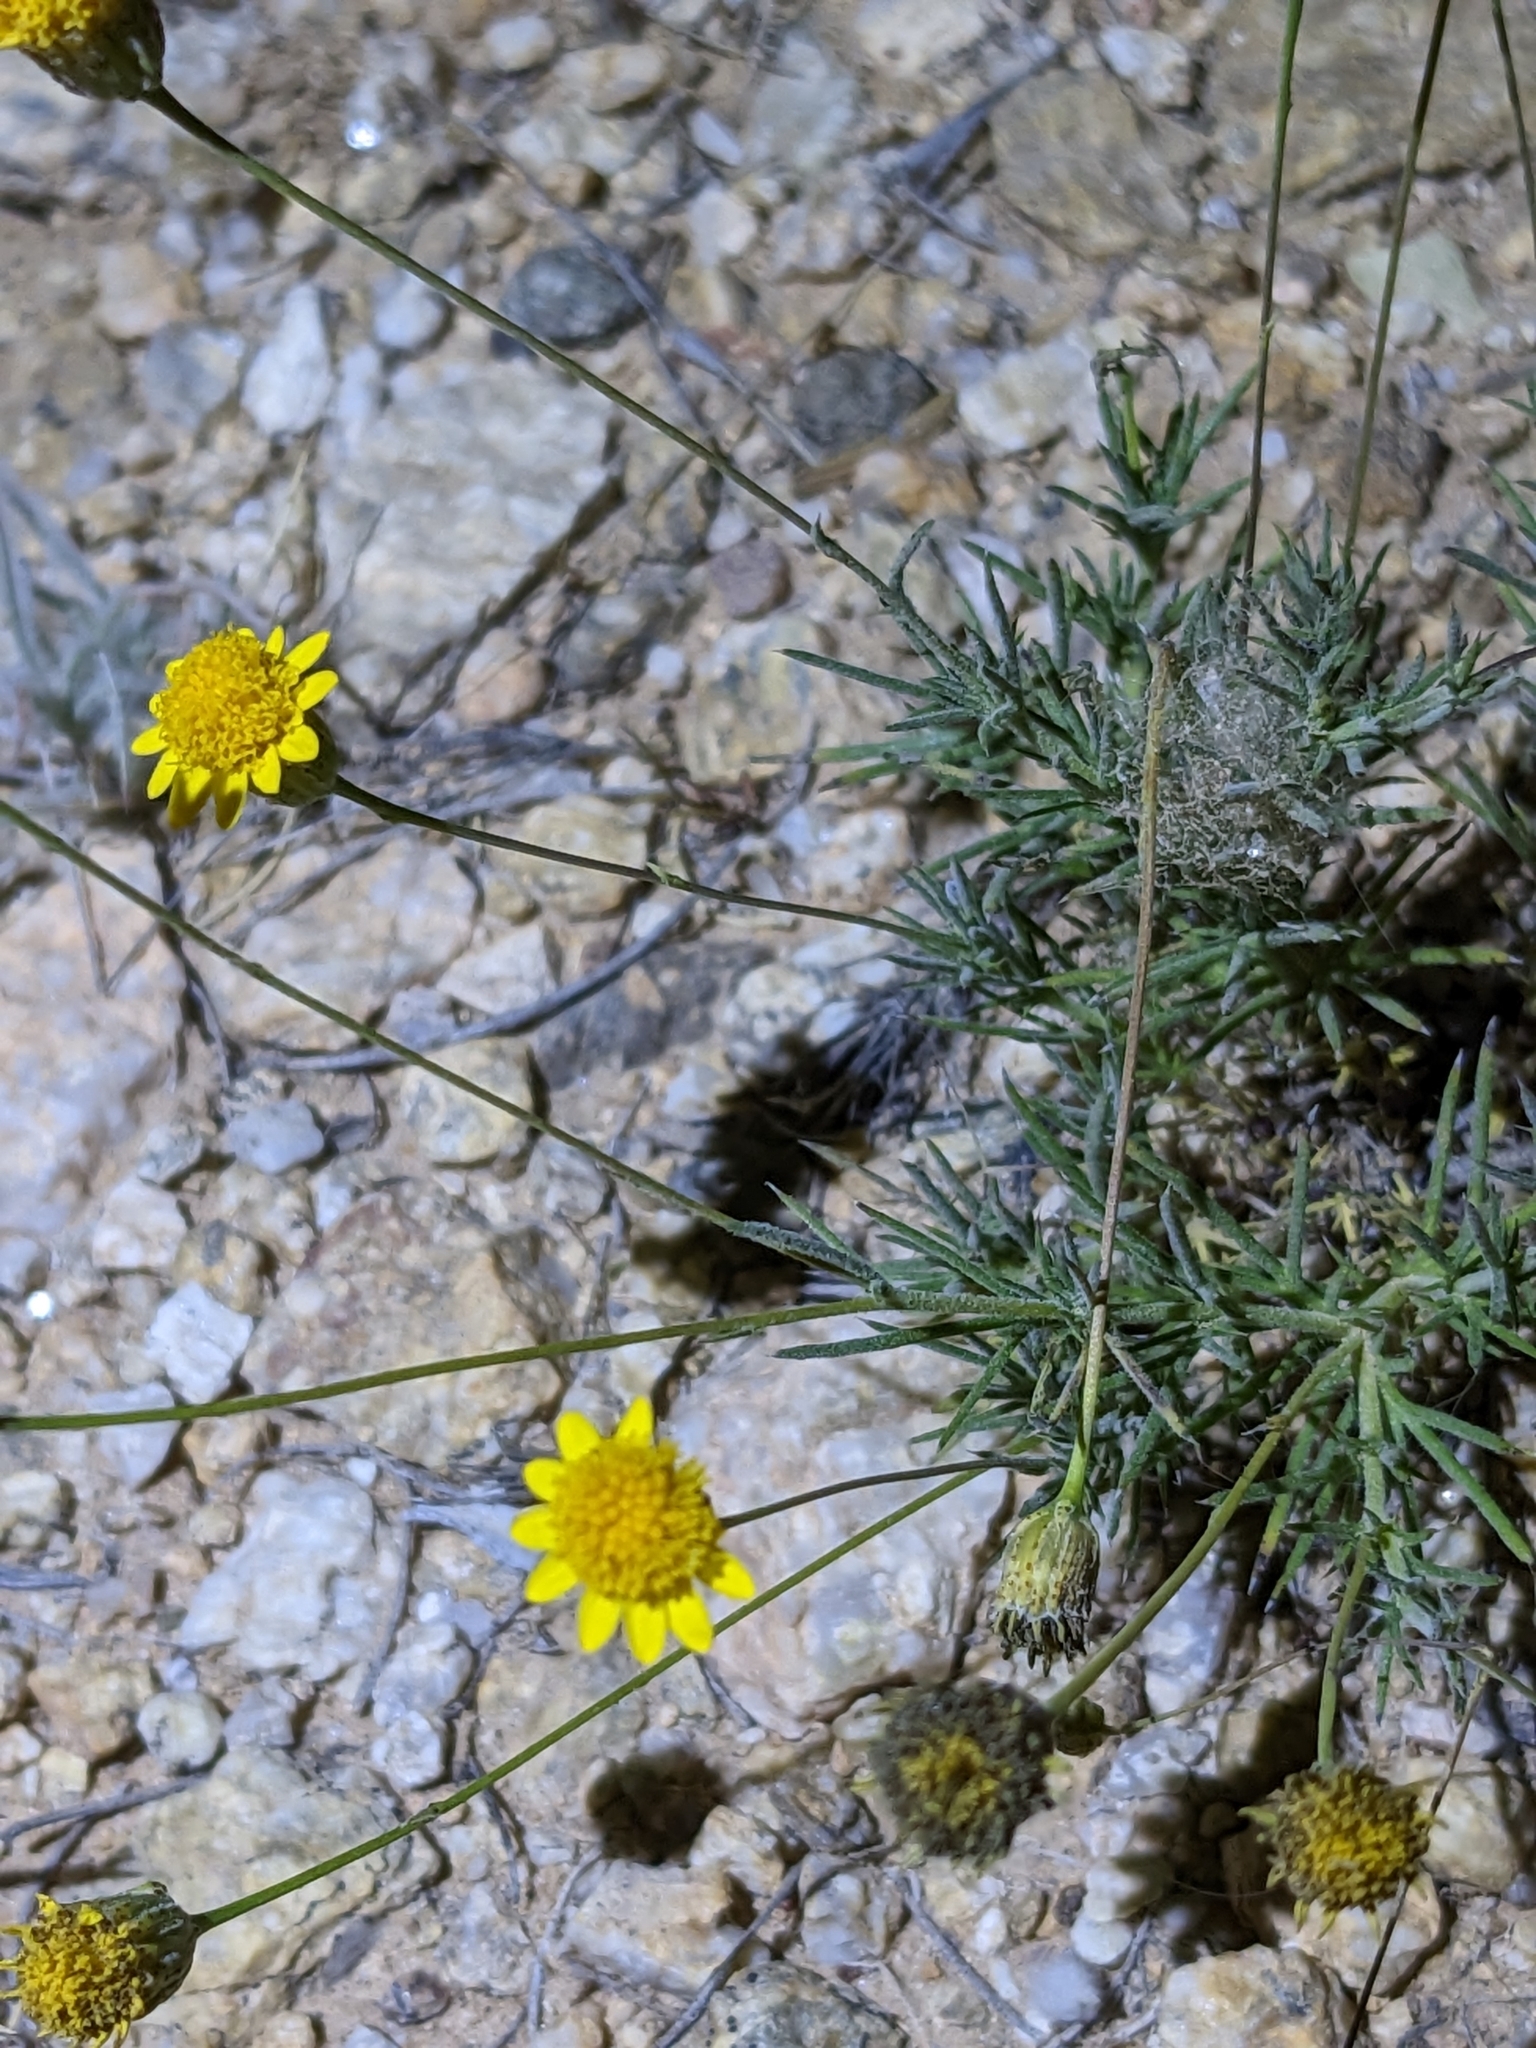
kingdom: Plantae
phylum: Tracheophyta
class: Magnoliopsida
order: Asterales
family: Asteraceae
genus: Thymophylla
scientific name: Thymophylla pentachaeta
